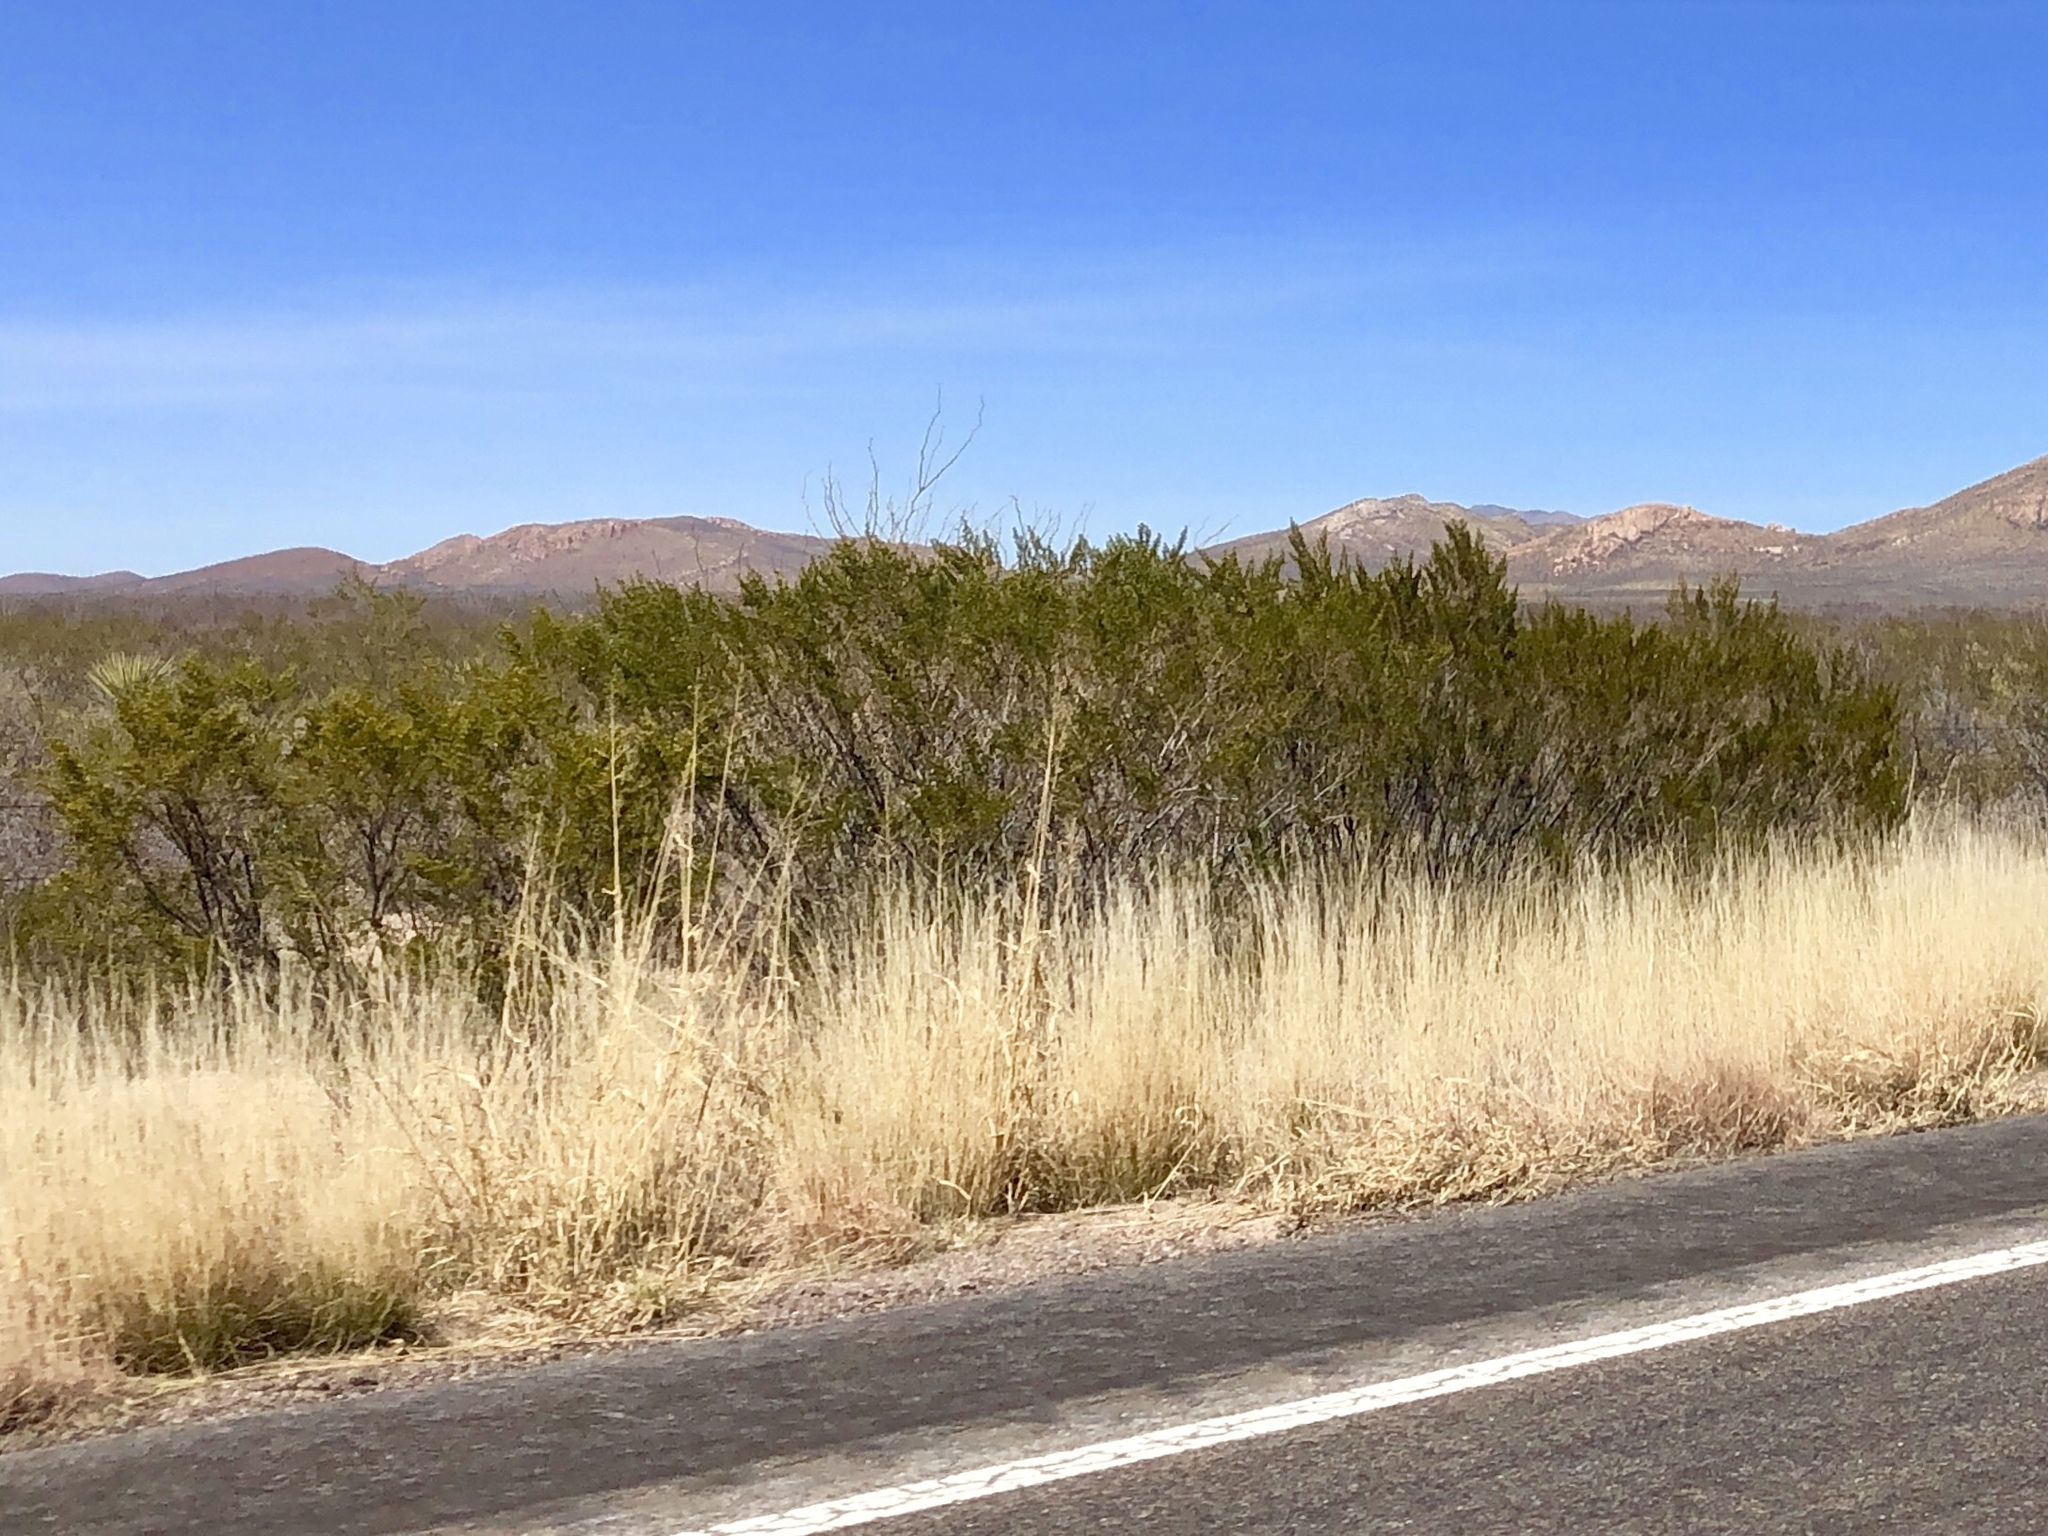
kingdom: Plantae
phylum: Tracheophyta
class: Magnoliopsida
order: Zygophyllales
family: Zygophyllaceae
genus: Larrea
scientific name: Larrea tridentata
